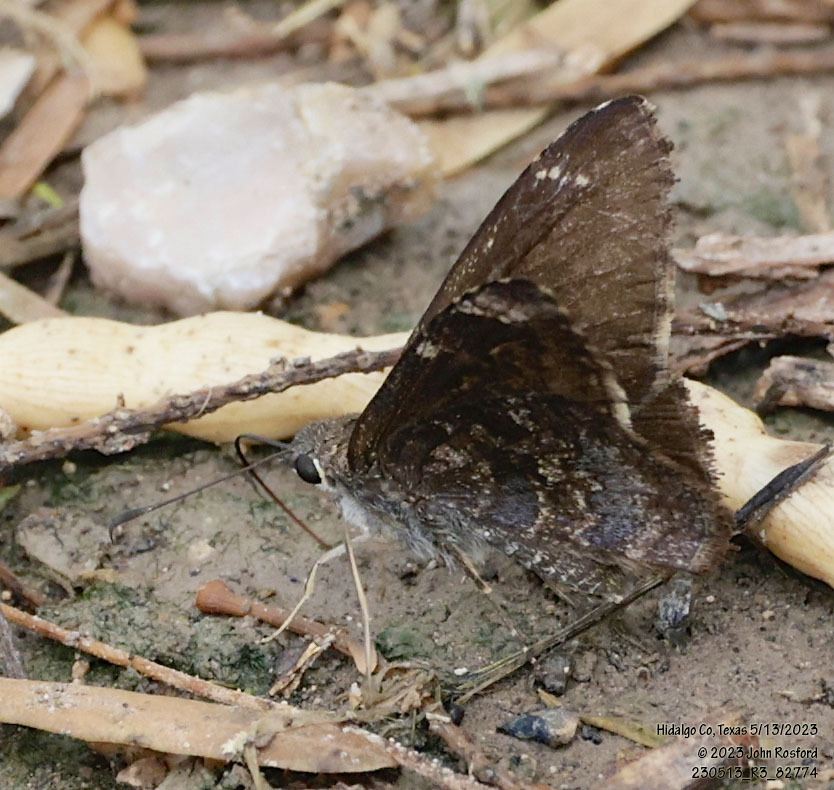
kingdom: Animalia
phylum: Arthropoda
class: Insecta
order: Lepidoptera
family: Hesperiidae
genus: Caicella
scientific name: Caicella calchas
